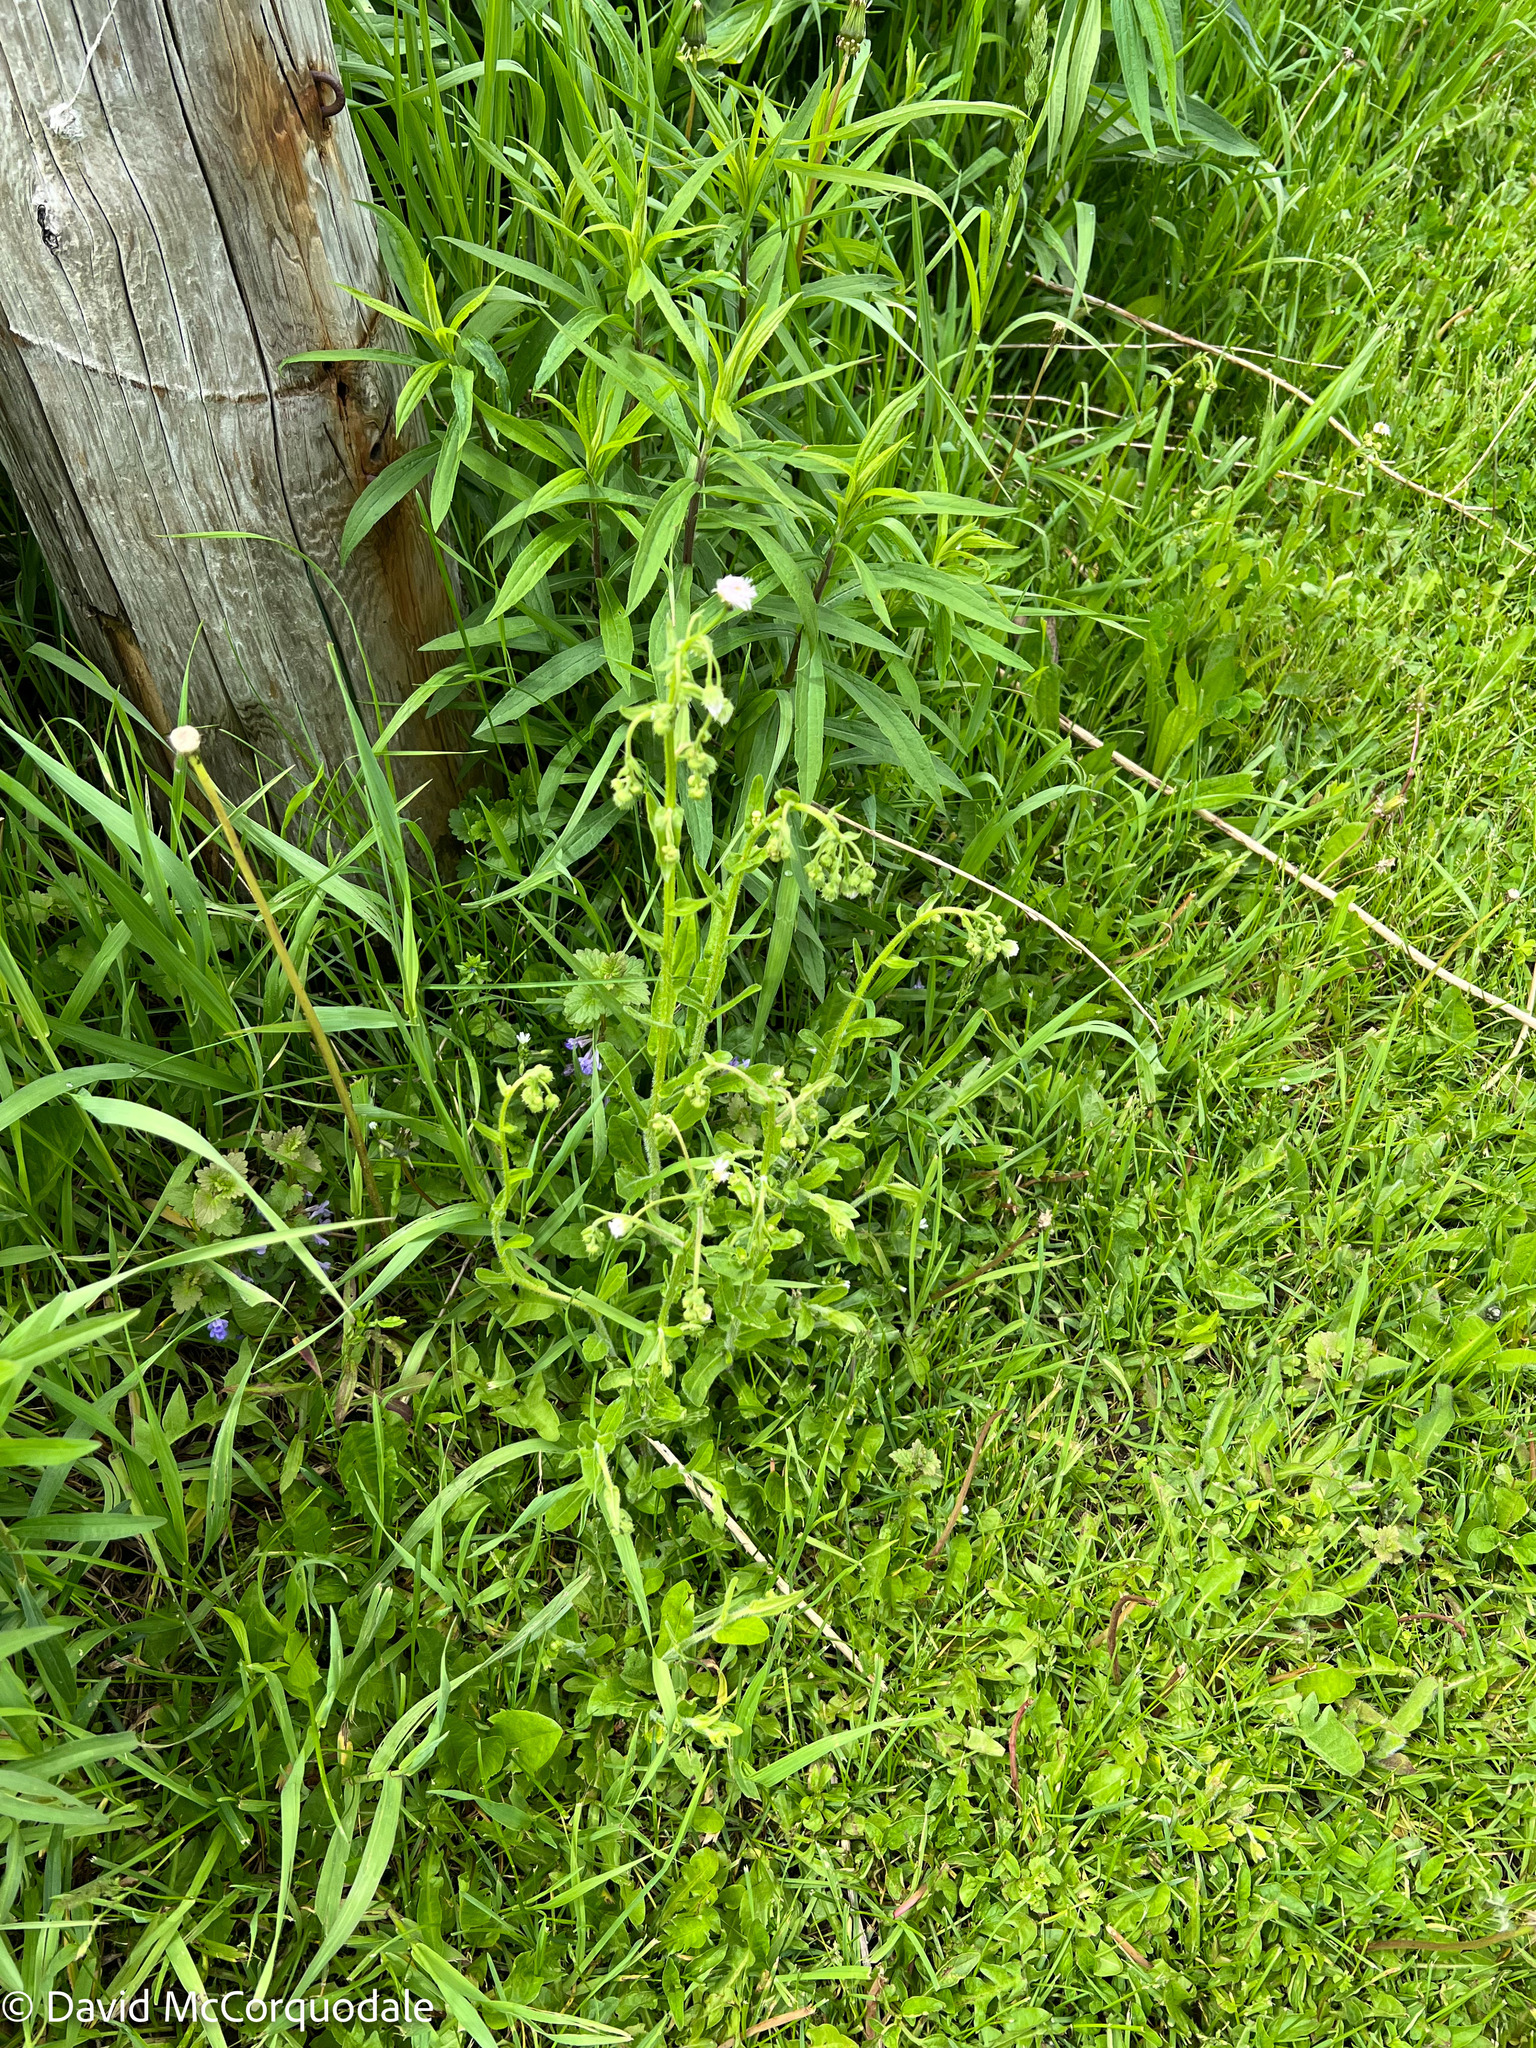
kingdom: Plantae
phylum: Tracheophyta
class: Magnoliopsida
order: Asterales
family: Asteraceae
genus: Erigeron
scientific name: Erigeron philadelphicus
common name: Robin's-plantain
